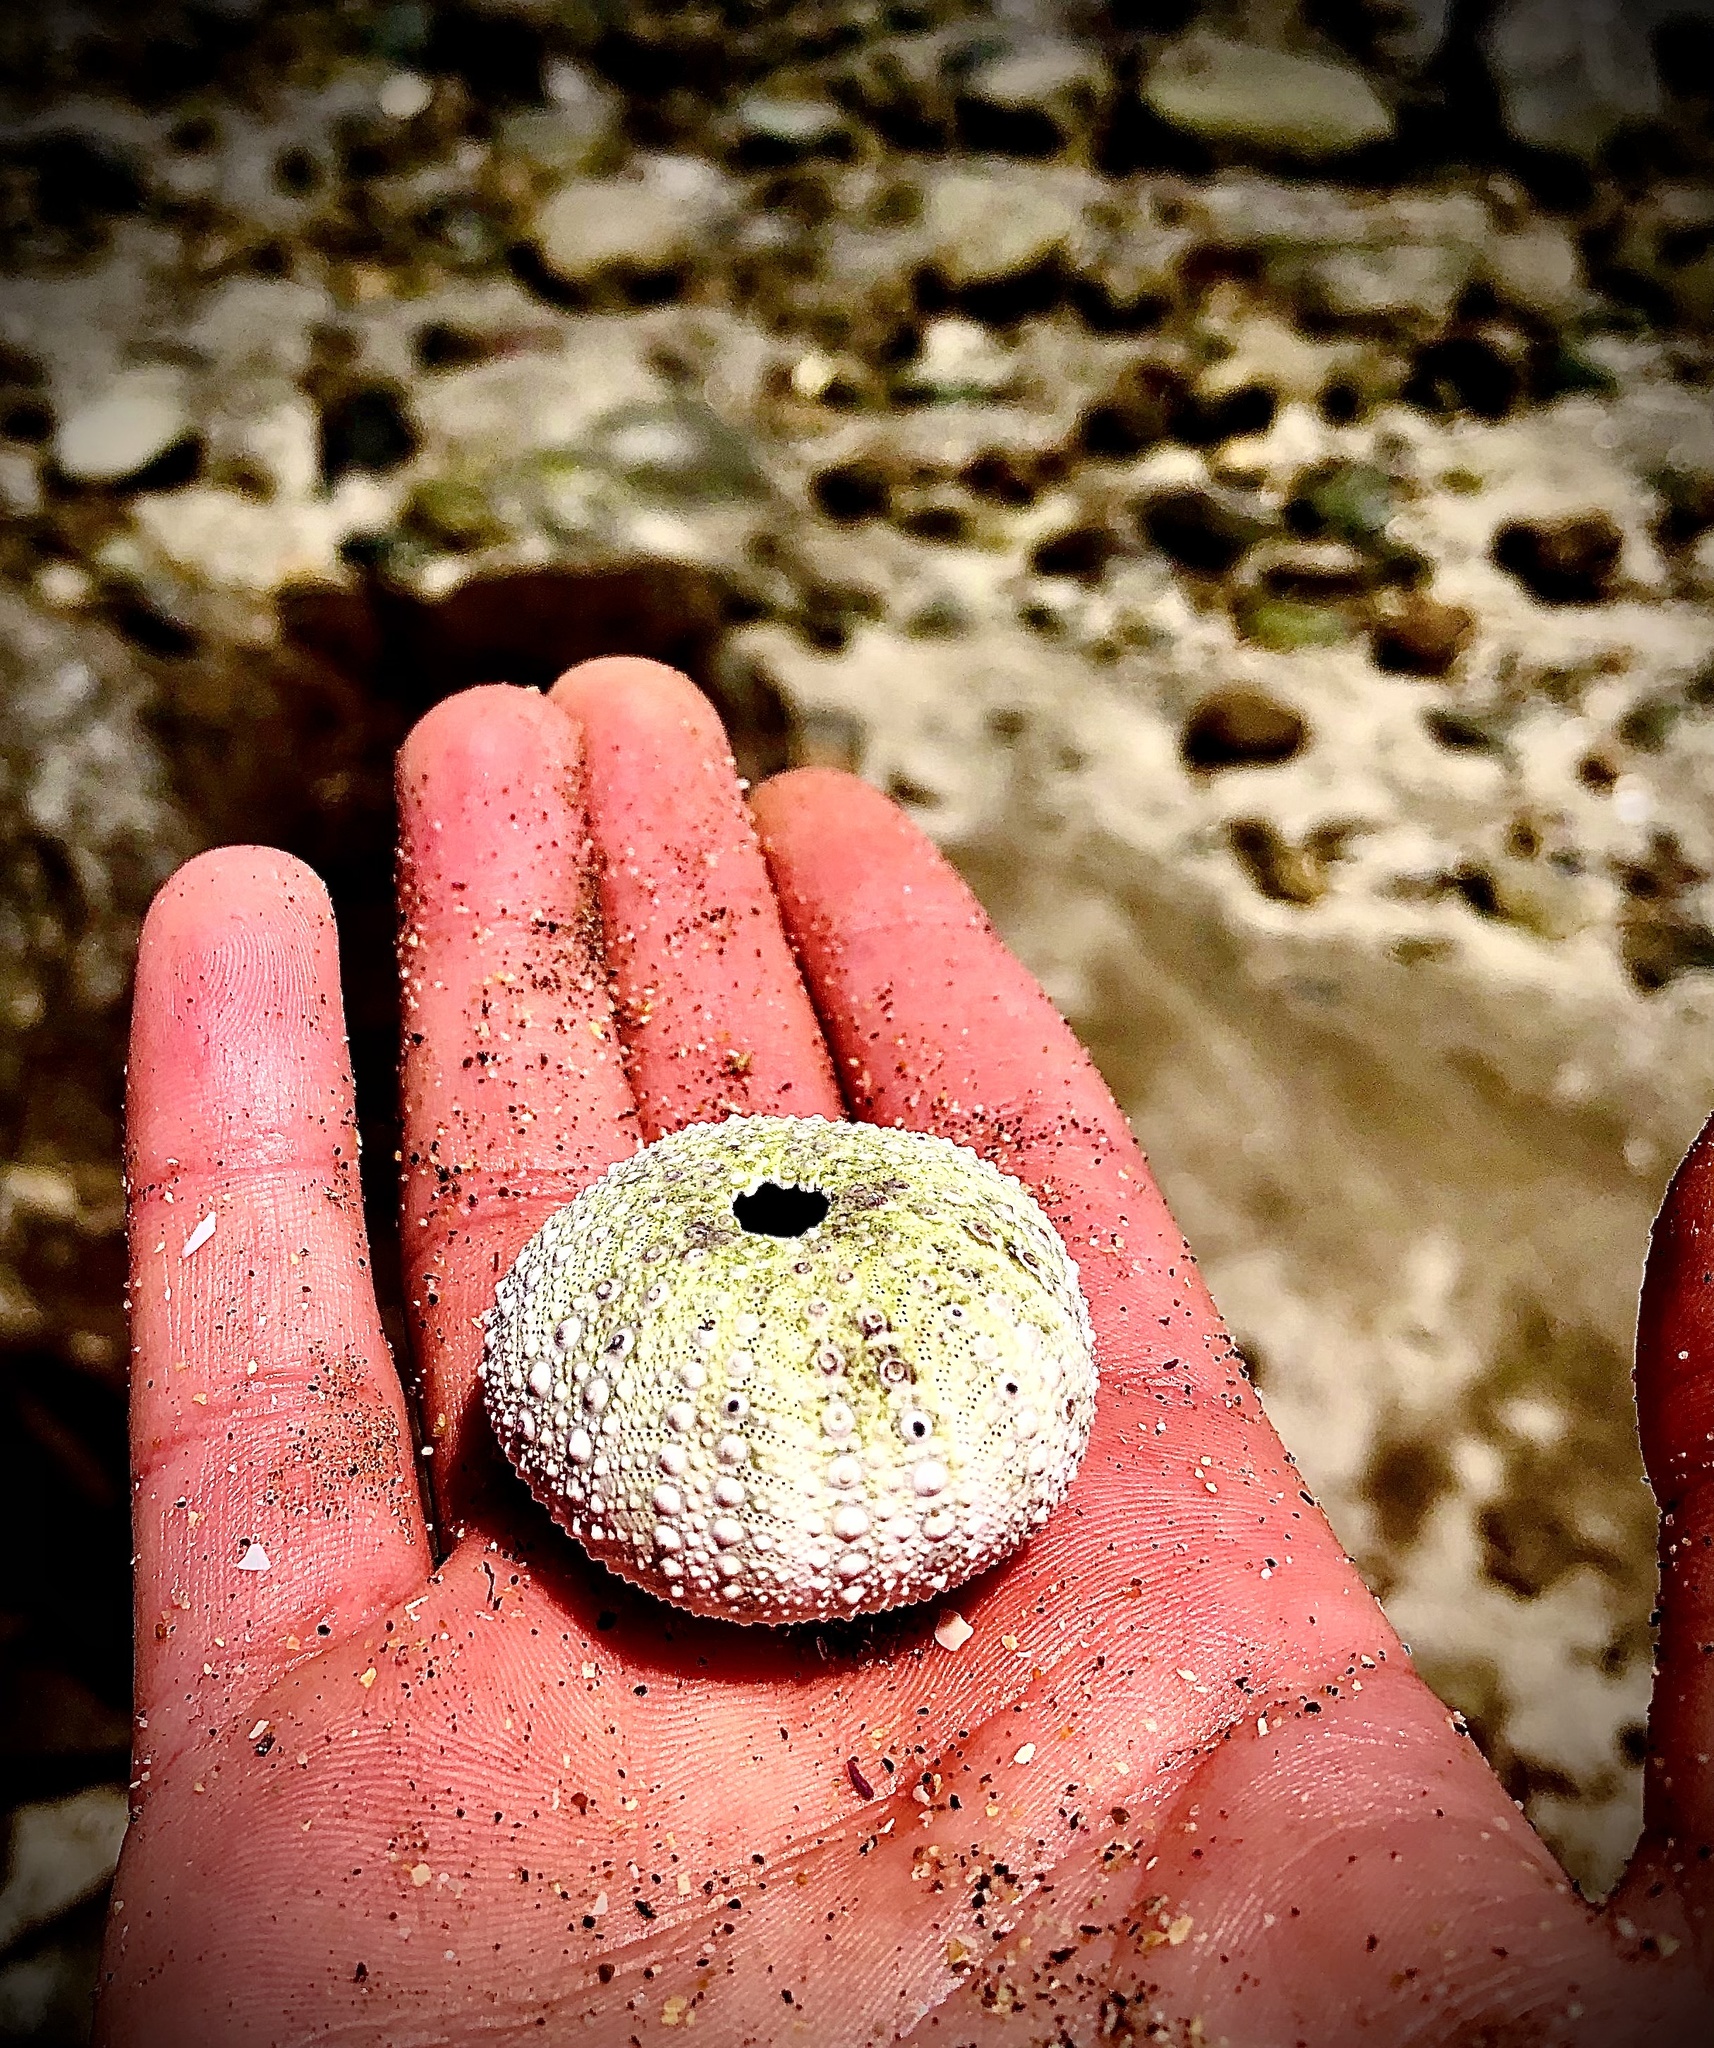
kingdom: Animalia
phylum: Echinodermata
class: Echinoidea
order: Camarodonta
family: Strongylocentrotidae
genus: Strongylocentrotus
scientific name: Strongylocentrotus purpuratus
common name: Purple sea urchin
